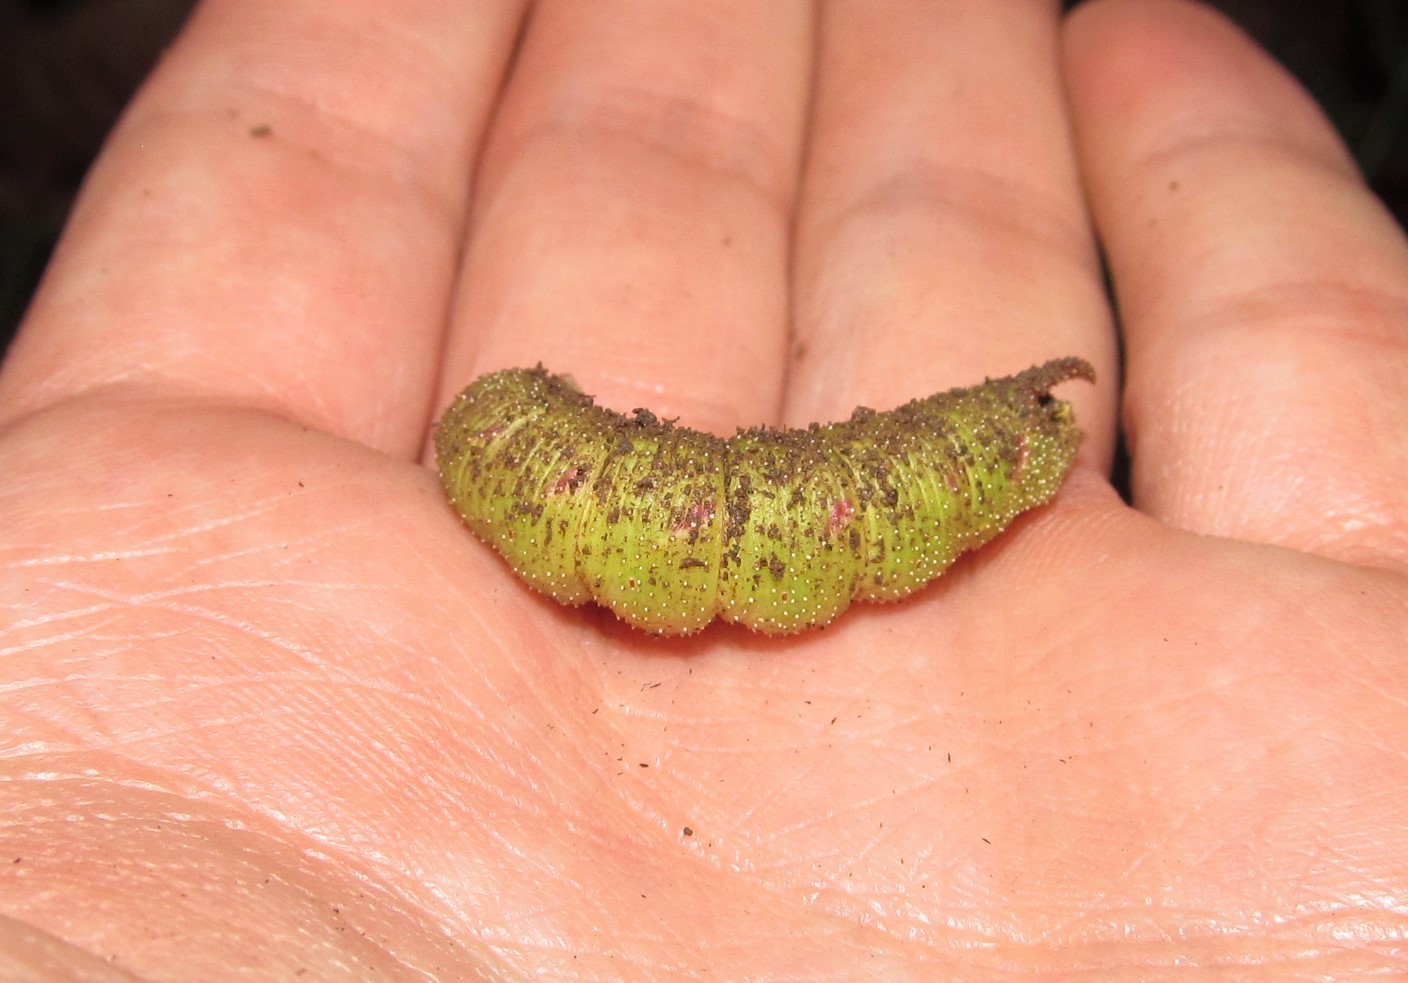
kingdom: Animalia
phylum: Arthropoda
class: Insecta
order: Lepidoptera
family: Sphingidae
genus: Amorpha
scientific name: Amorpha juglandis
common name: Walnut sphinx
